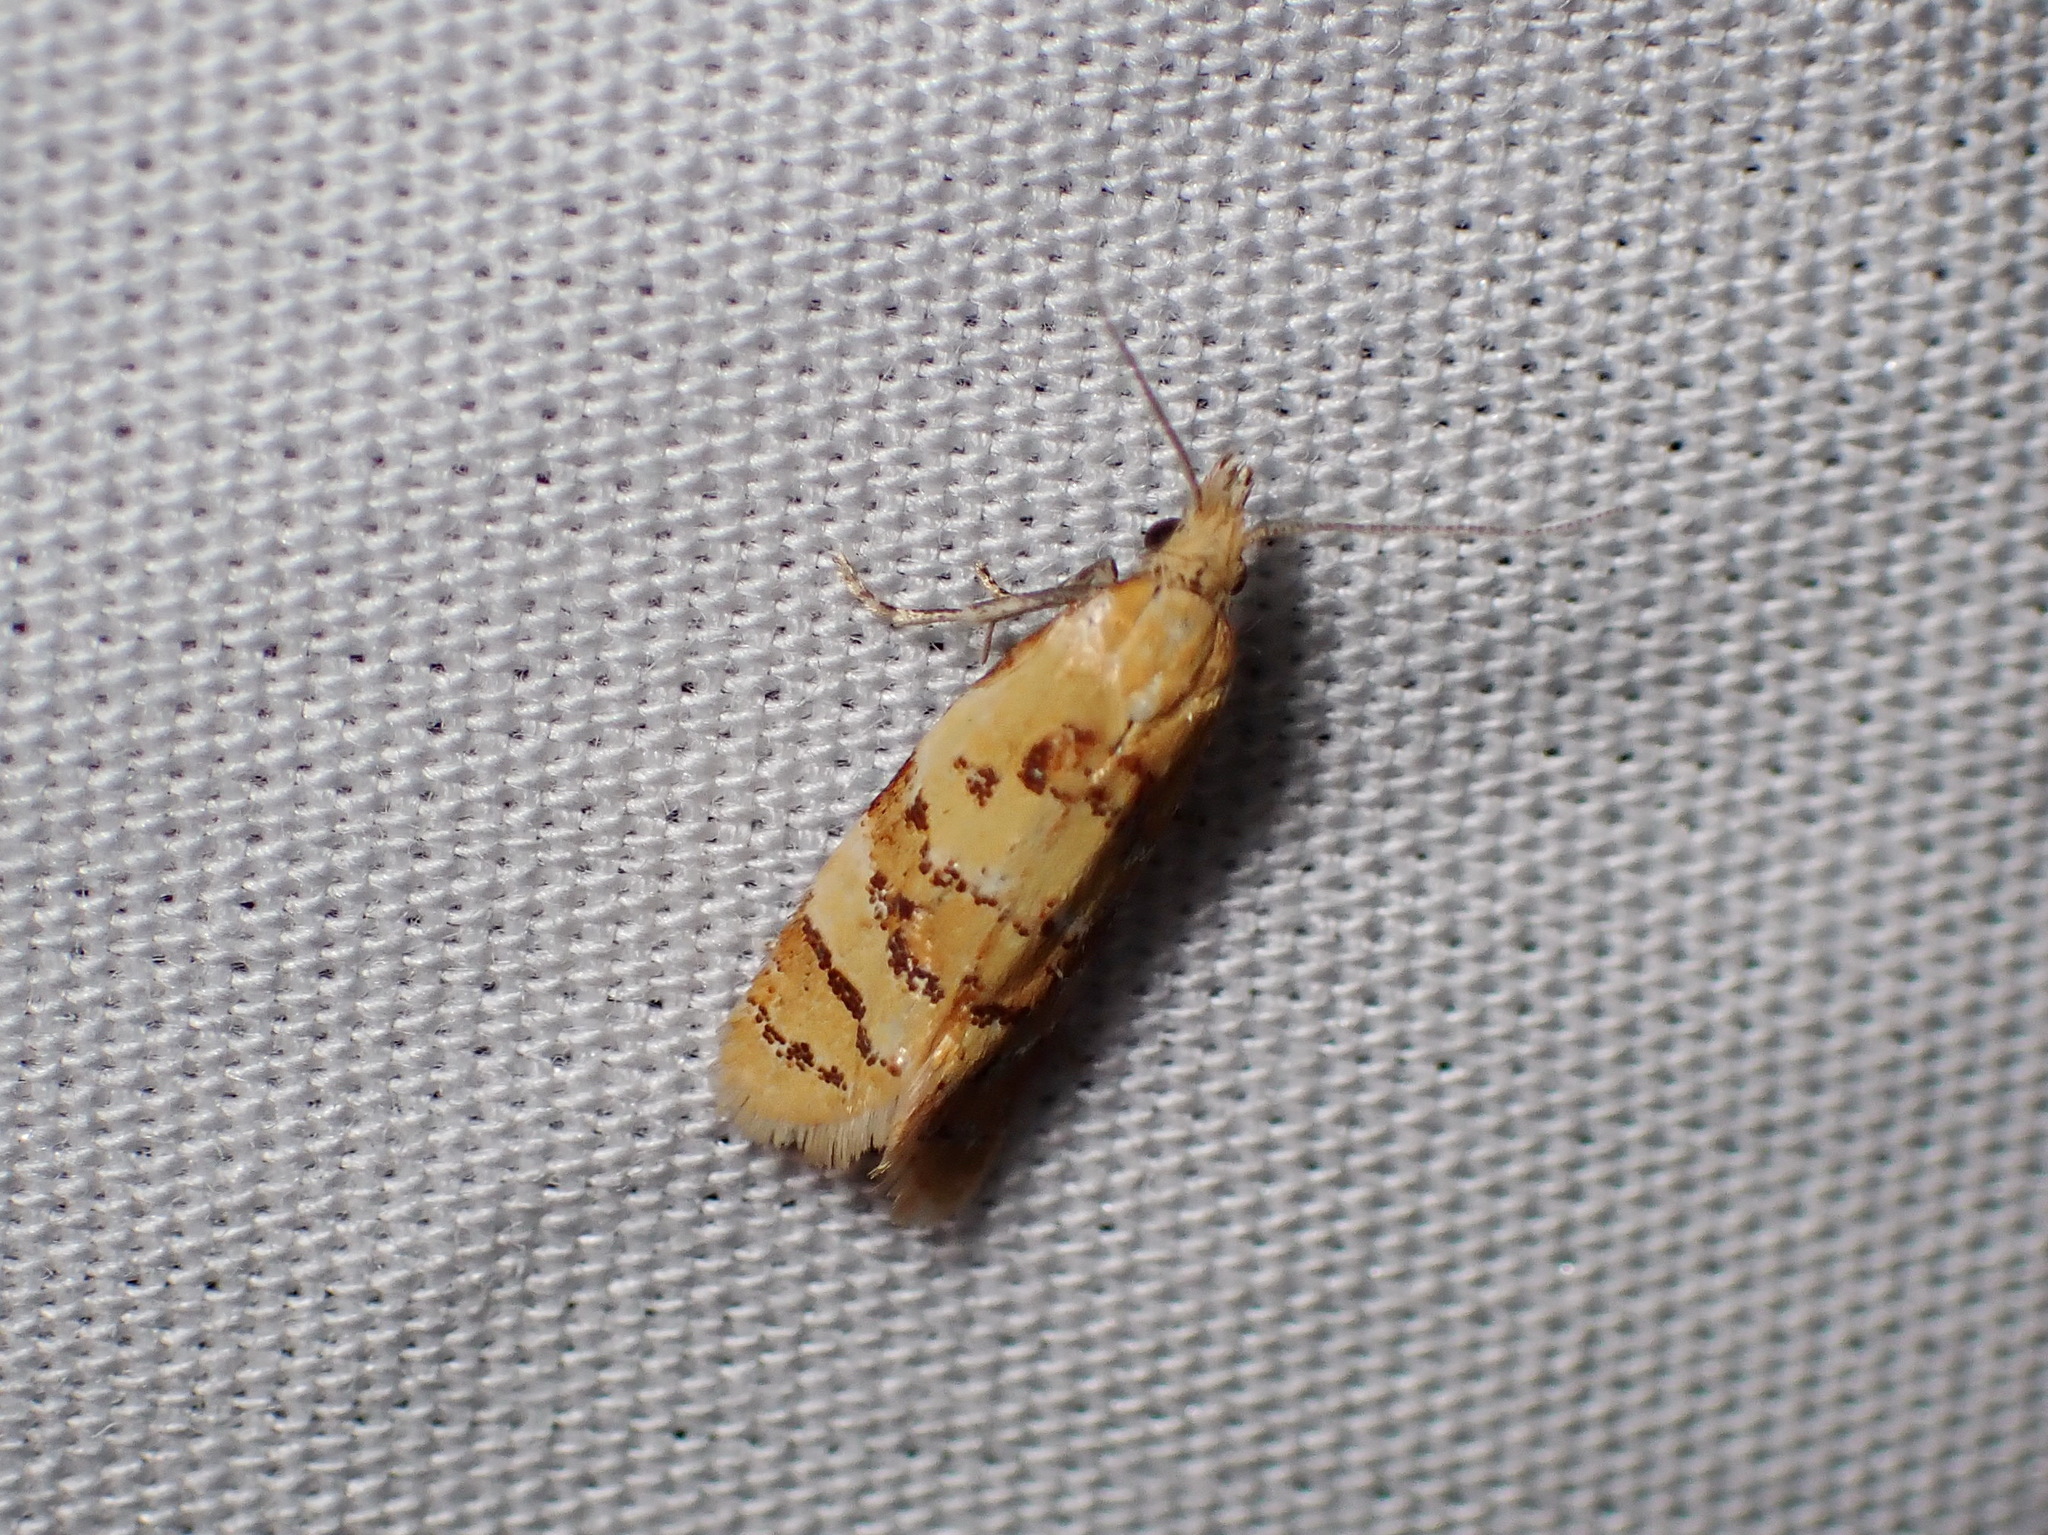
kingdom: Animalia
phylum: Arthropoda
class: Insecta
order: Lepidoptera
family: Tortricidae
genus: Phtheochroa
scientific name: Phtheochroa vitellinana
